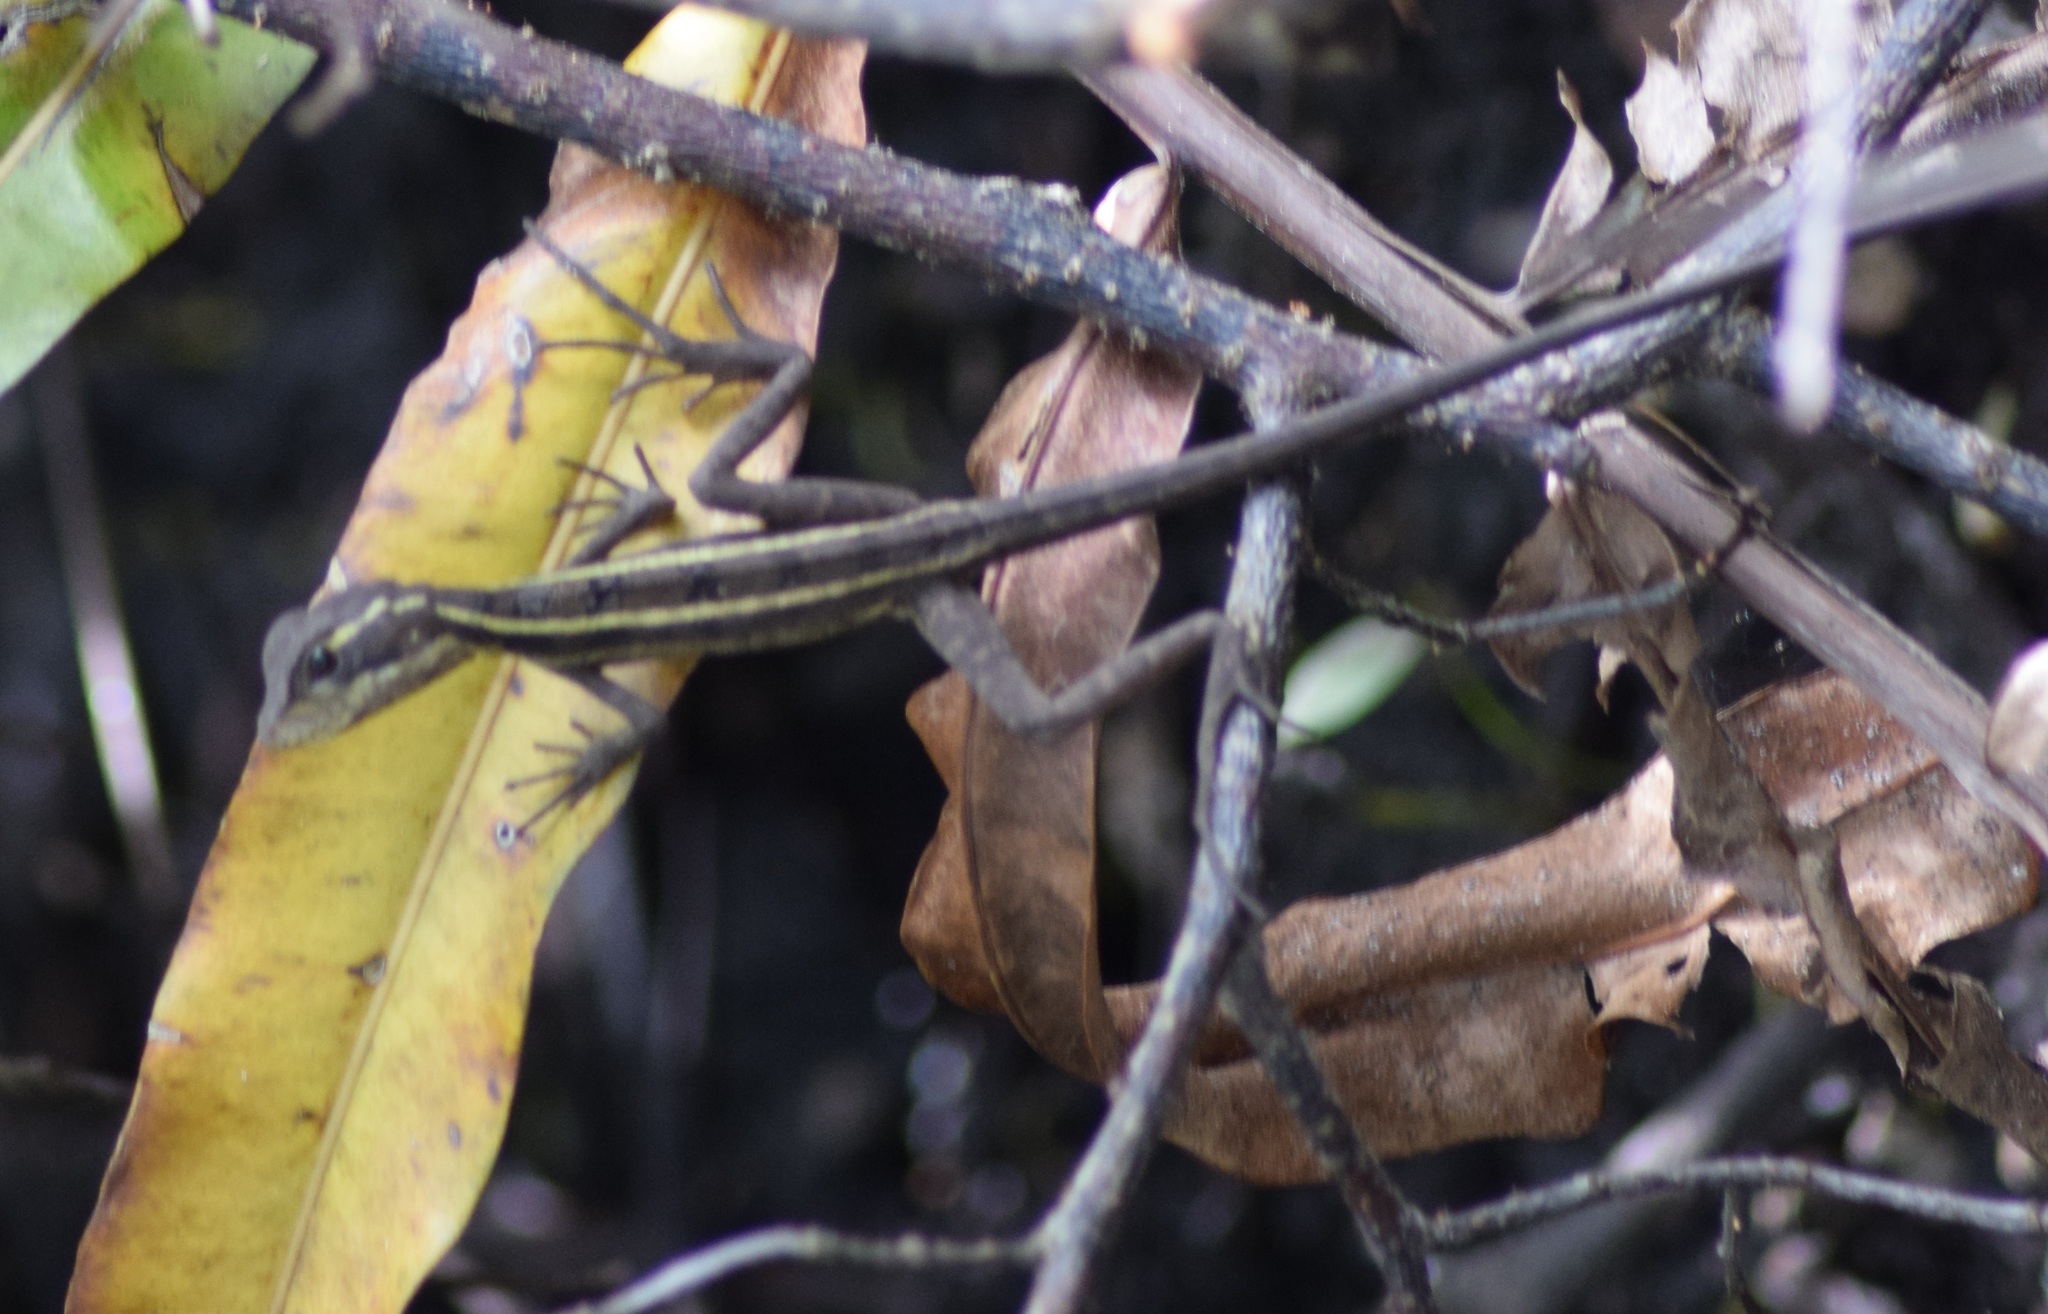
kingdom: Animalia
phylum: Chordata
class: Squamata
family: Corytophanidae
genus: Basiliscus
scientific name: Basiliscus vittatus
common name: Brown basilisk
